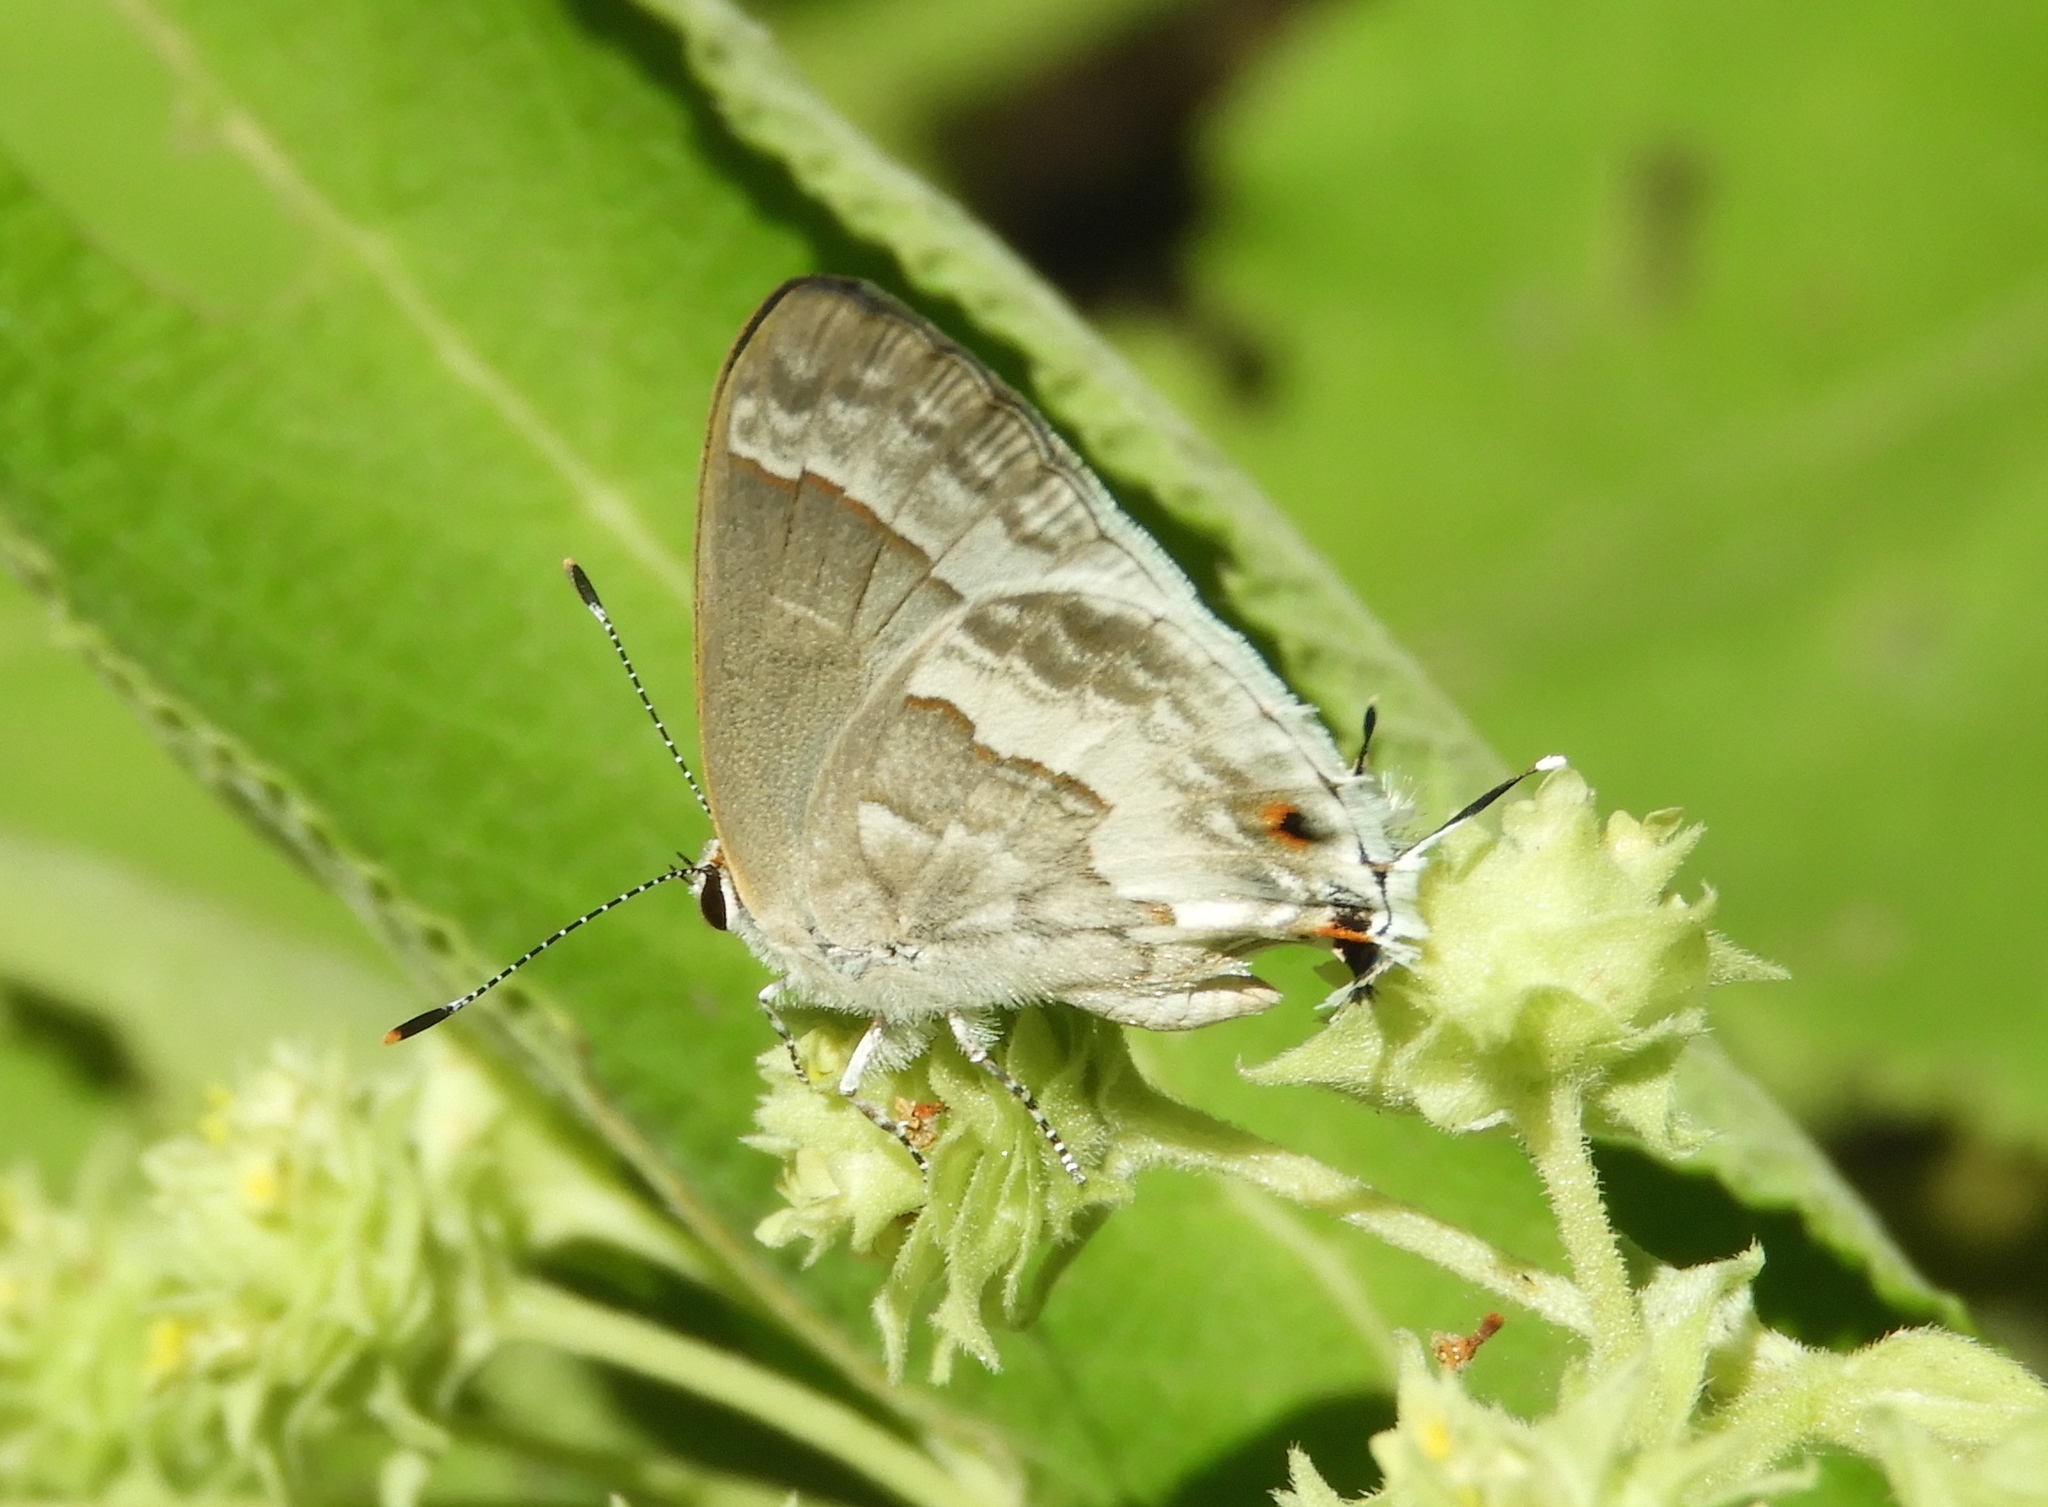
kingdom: Animalia
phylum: Arthropoda
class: Insecta
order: Lepidoptera
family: Lycaenidae
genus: Strymon
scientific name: Strymon albata
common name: White scrub-hairstreak
